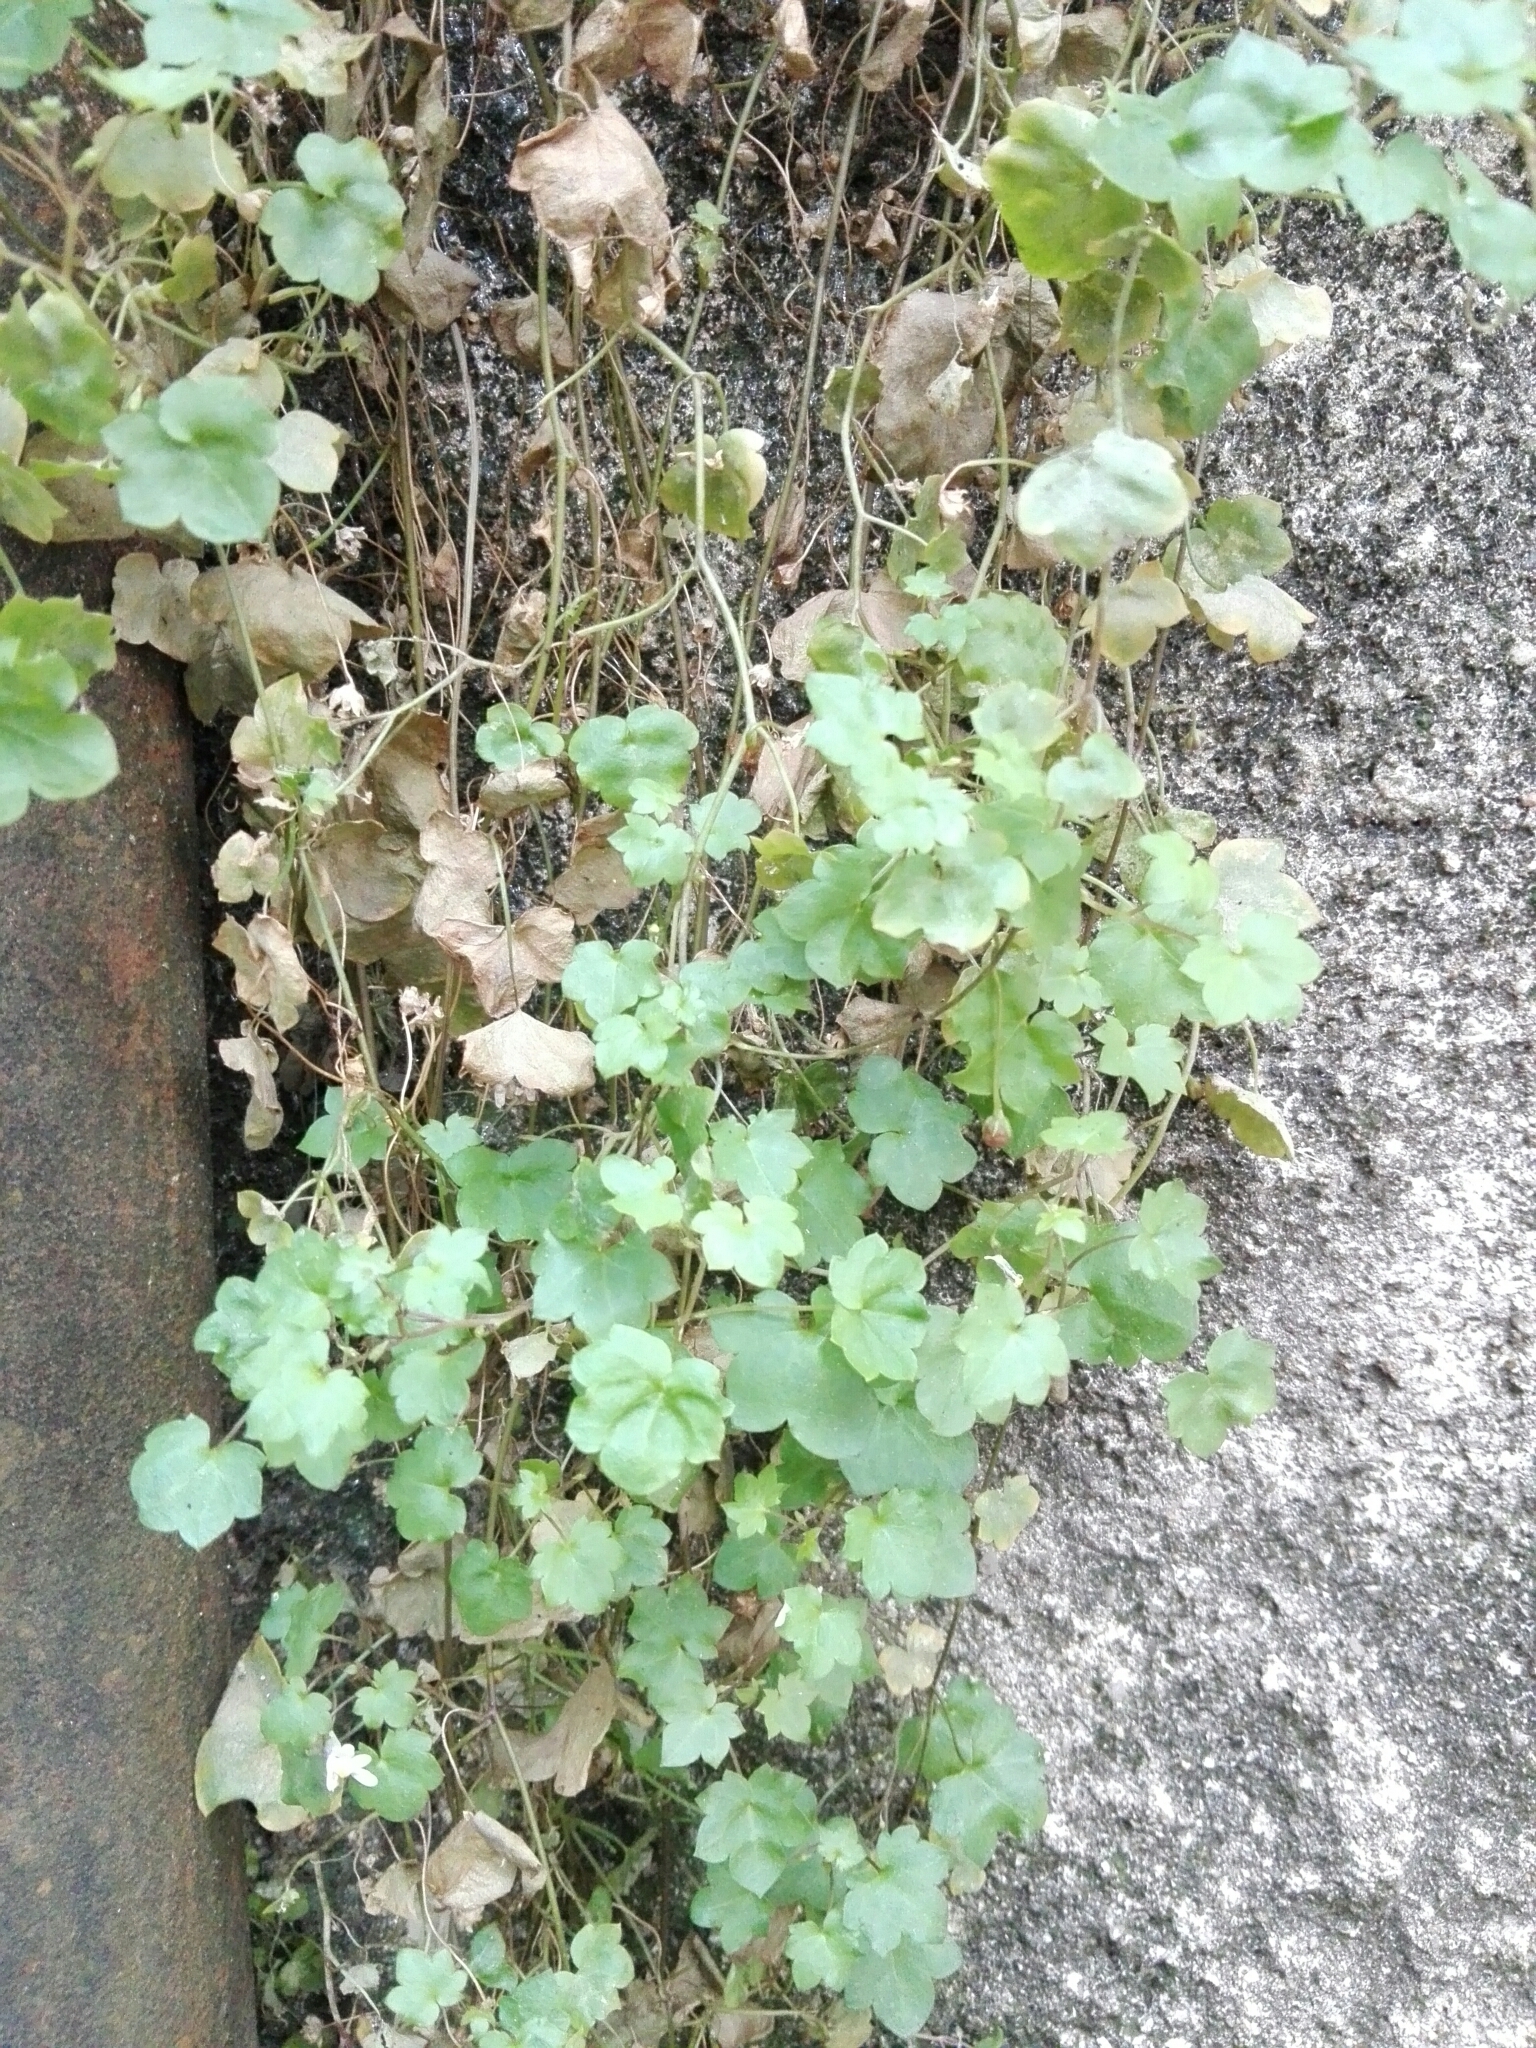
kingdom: Plantae
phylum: Tracheophyta
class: Magnoliopsida
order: Lamiales
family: Plantaginaceae
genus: Cymbalaria
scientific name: Cymbalaria muralis
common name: Ivy-leaved toadflax
